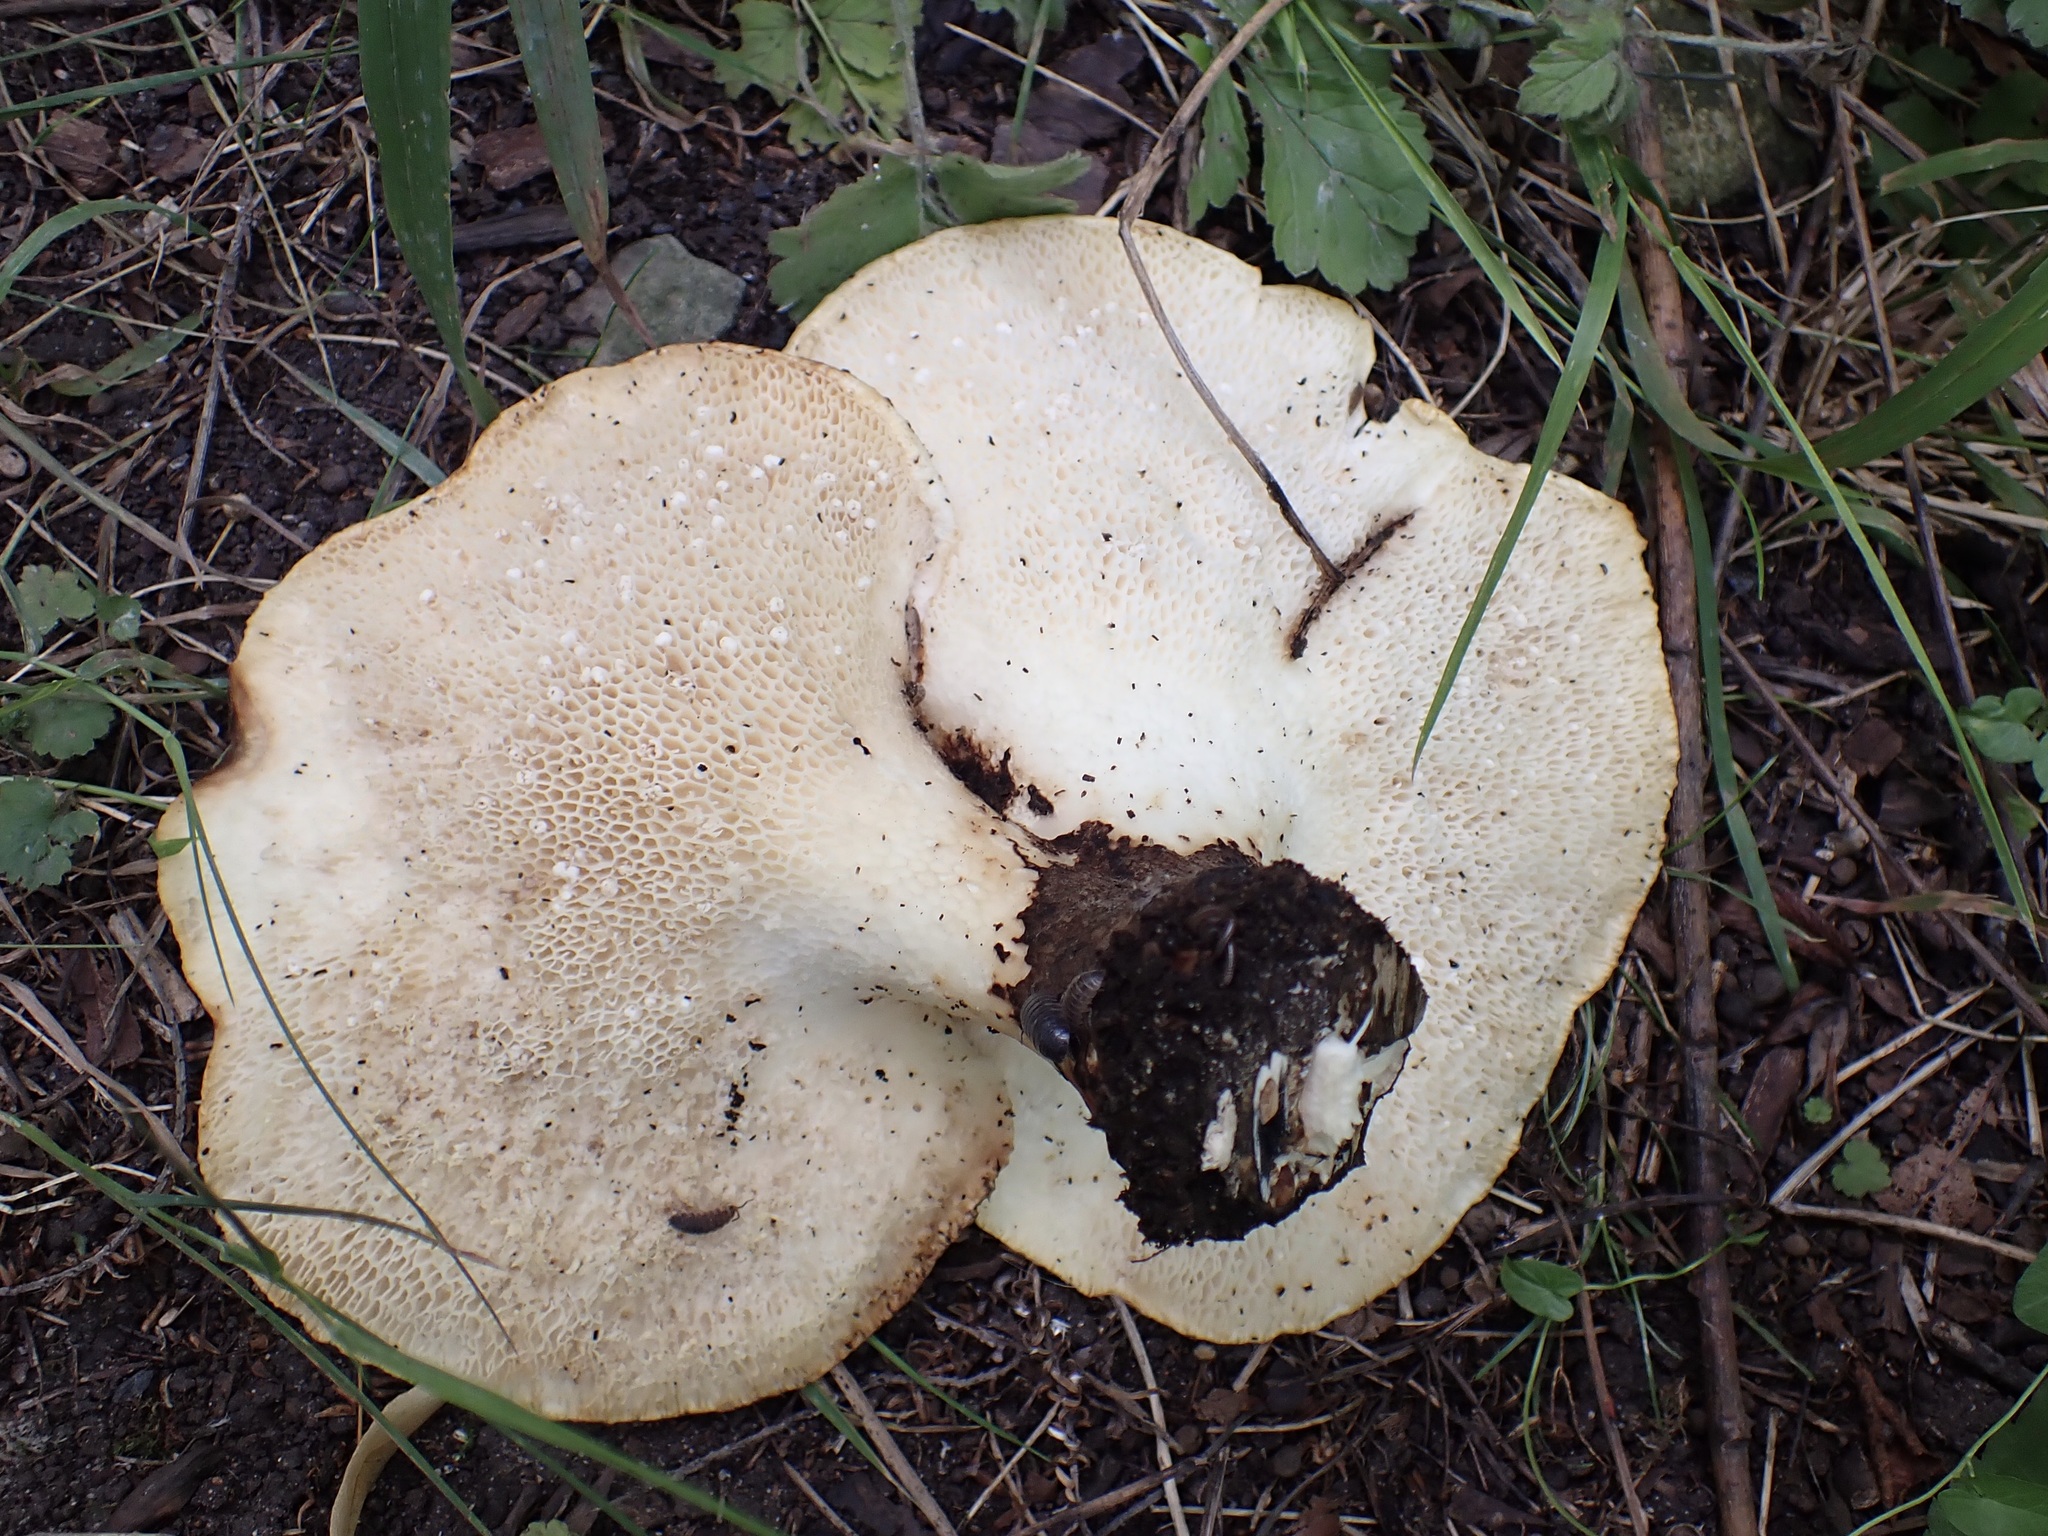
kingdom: Fungi
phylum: Basidiomycota
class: Agaricomycetes
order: Polyporales
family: Polyporaceae
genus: Cerioporus
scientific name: Cerioporus squamosus
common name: Dryad's saddle
